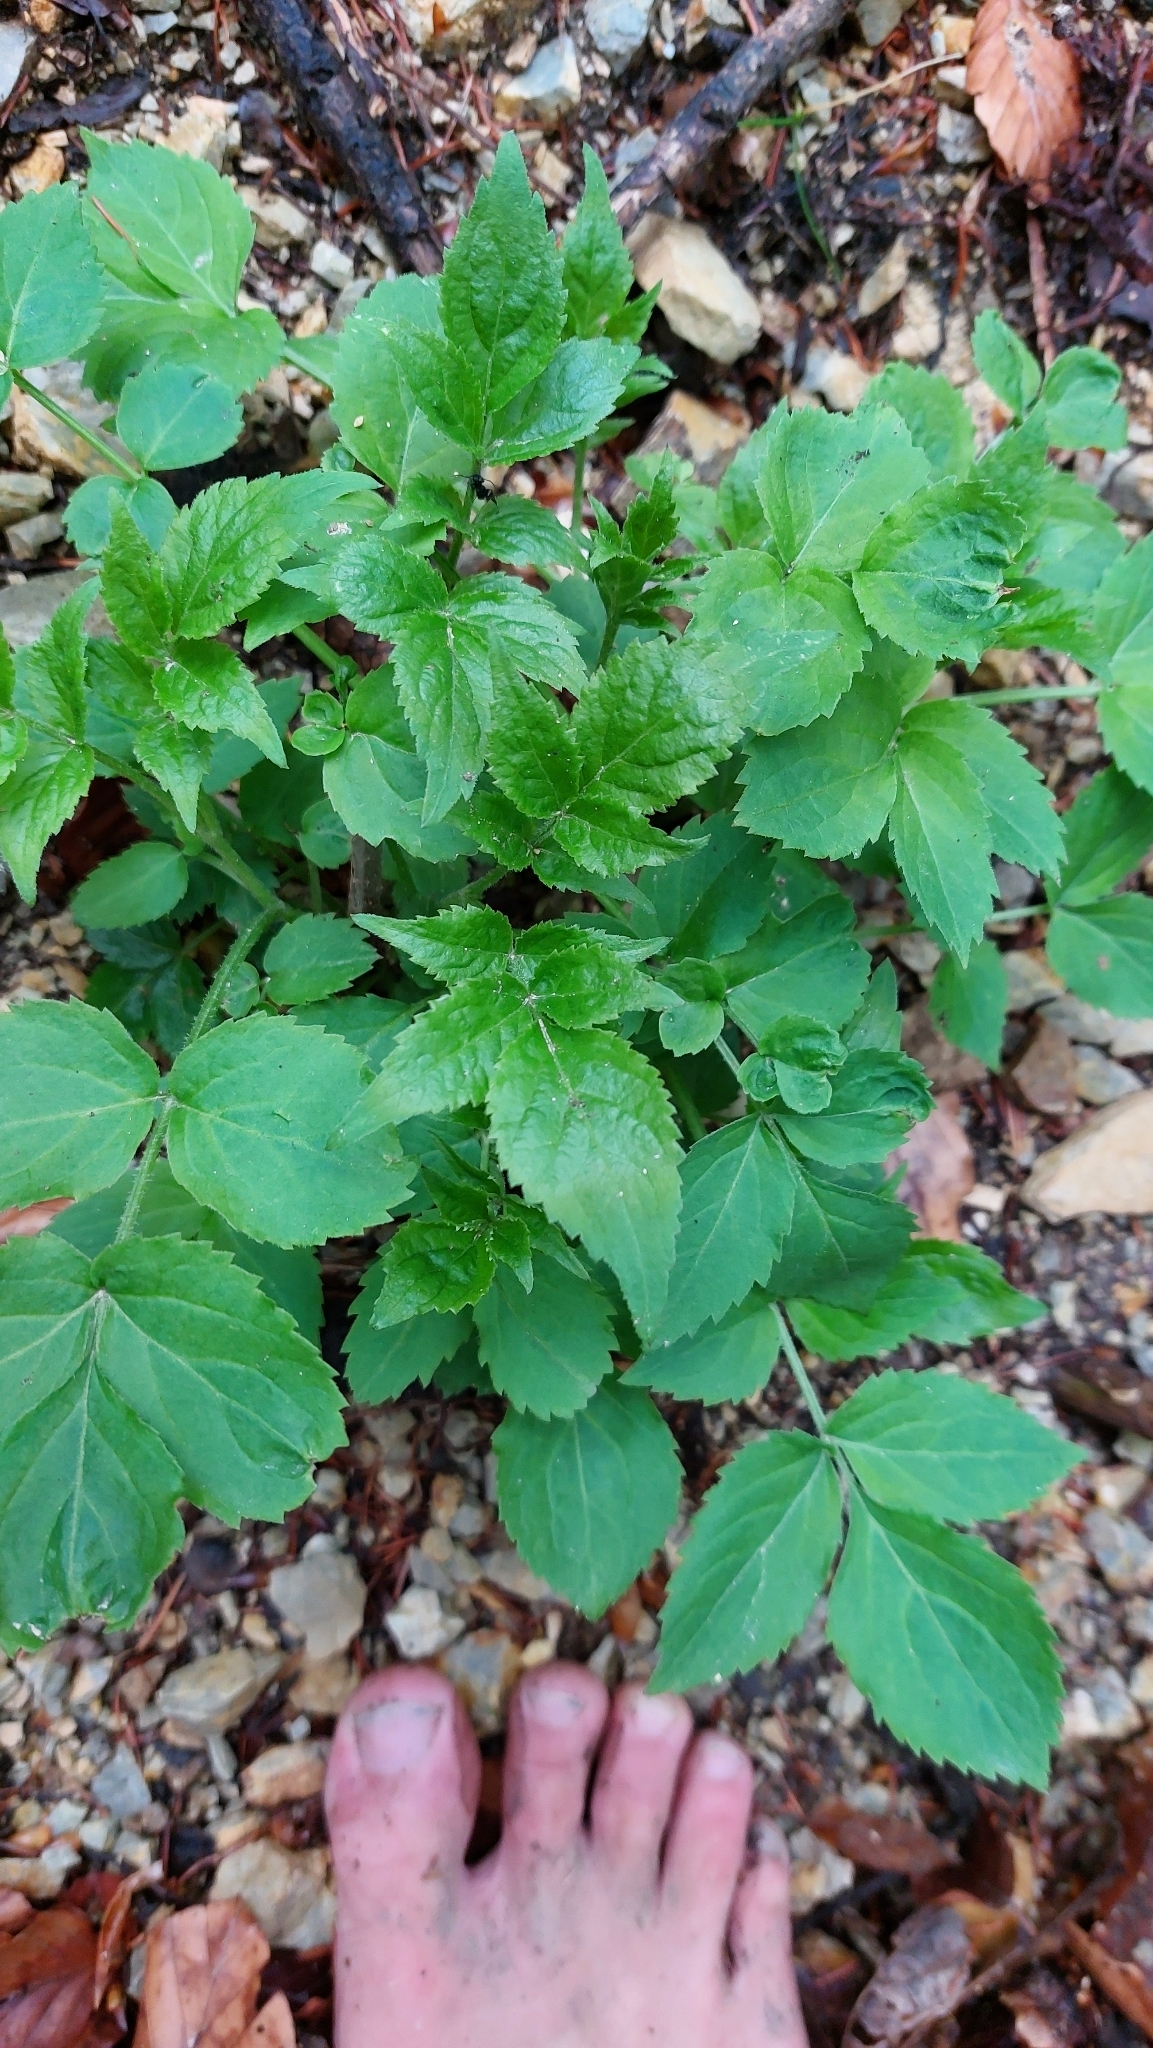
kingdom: Plantae
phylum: Tracheophyta
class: Magnoliopsida
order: Dipsacales
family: Viburnaceae
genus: Sambucus
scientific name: Sambucus nigra
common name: Elder
